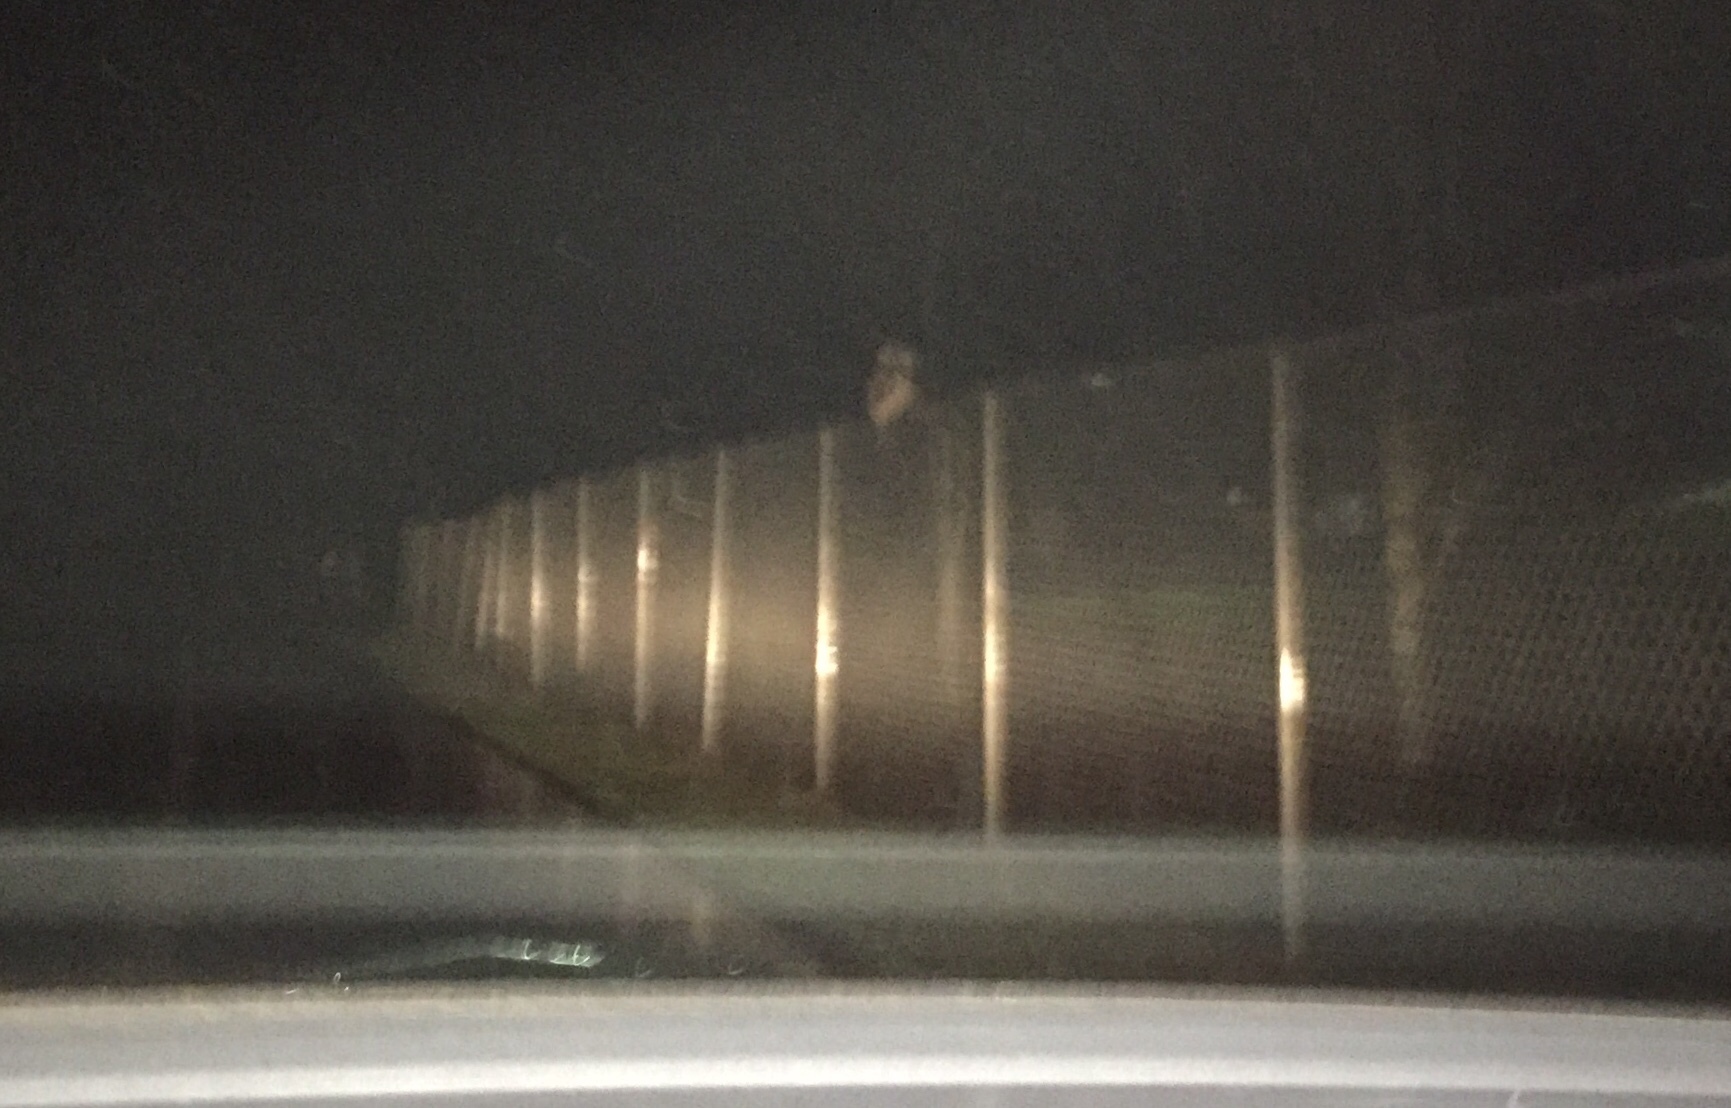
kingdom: Animalia
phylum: Chordata
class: Aves
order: Strigiformes
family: Strigidae
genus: Strix
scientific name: Strix varia
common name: Barred owl
